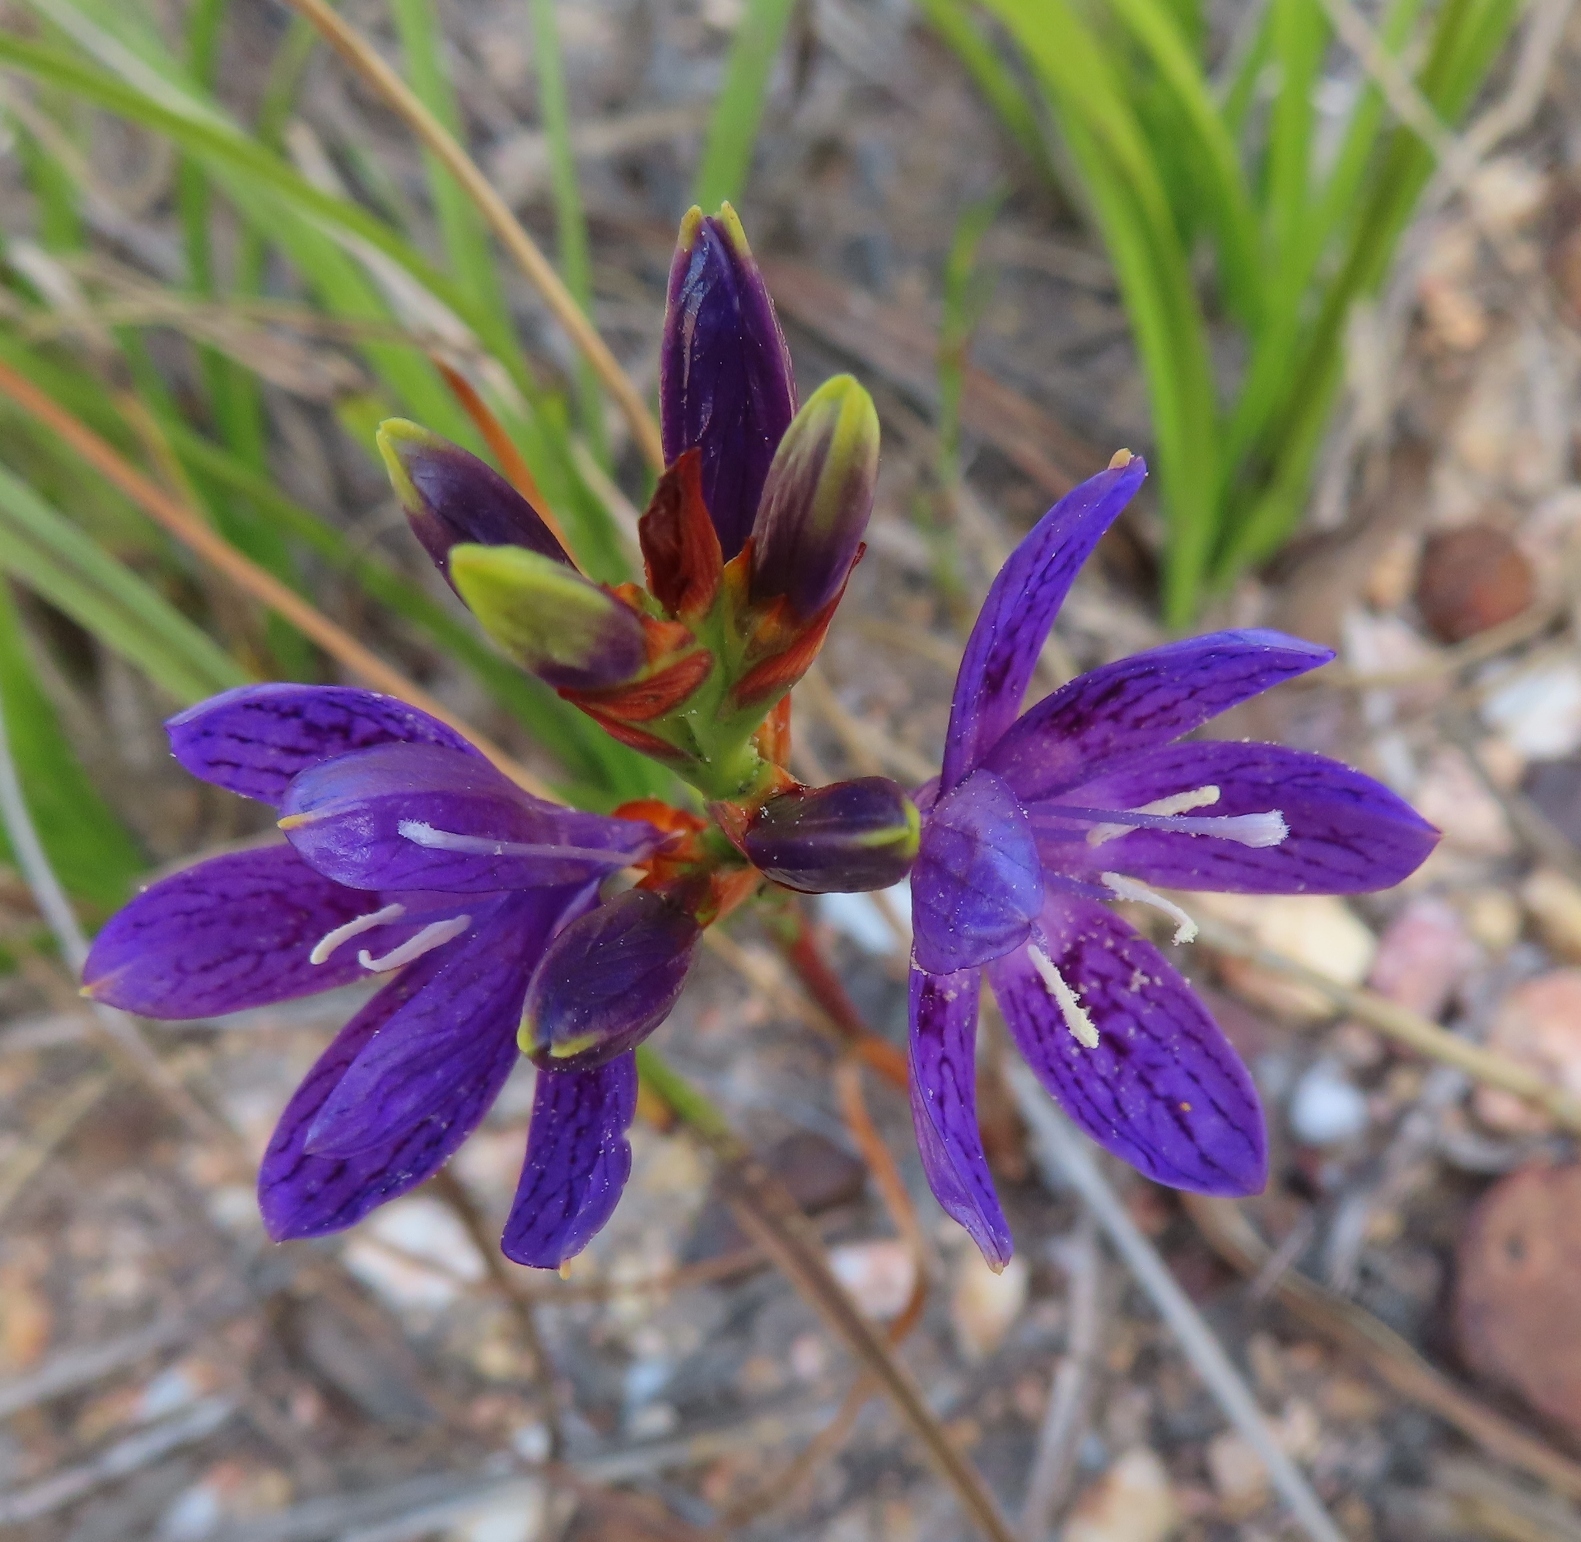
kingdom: Plantae
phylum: Tracheophyta
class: Liliopsida
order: Asparagales
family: Iridaceae
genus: Thereianthus
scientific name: Thereianthus bracteolatus
